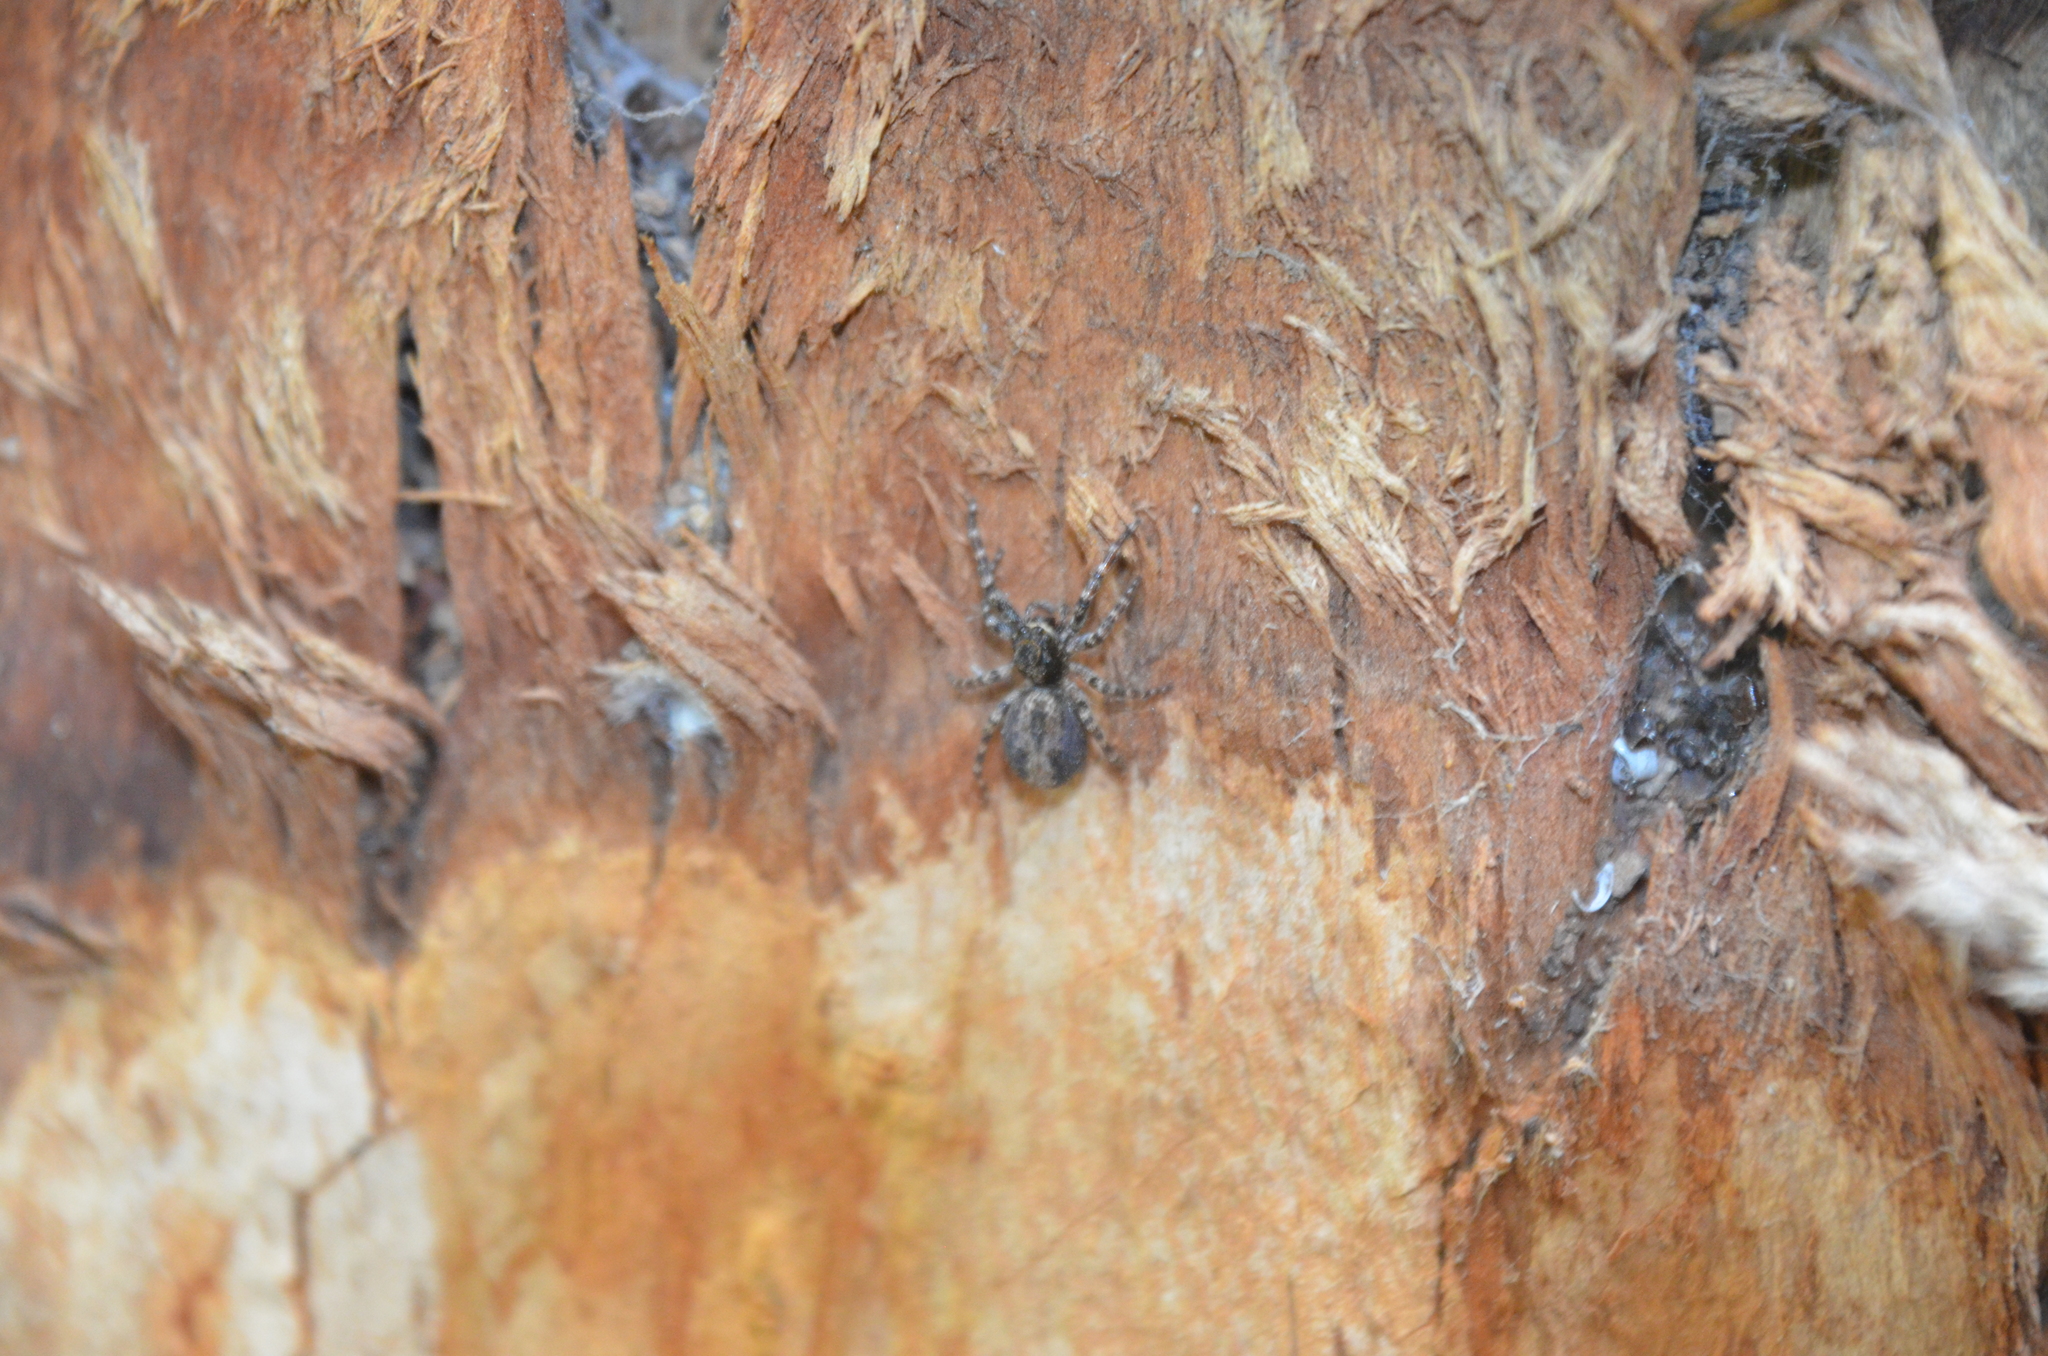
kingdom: Animalia
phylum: Arthropoda
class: Arachnida
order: Araneae
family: Salticidae
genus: Titanattus
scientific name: Titanattus andinus
